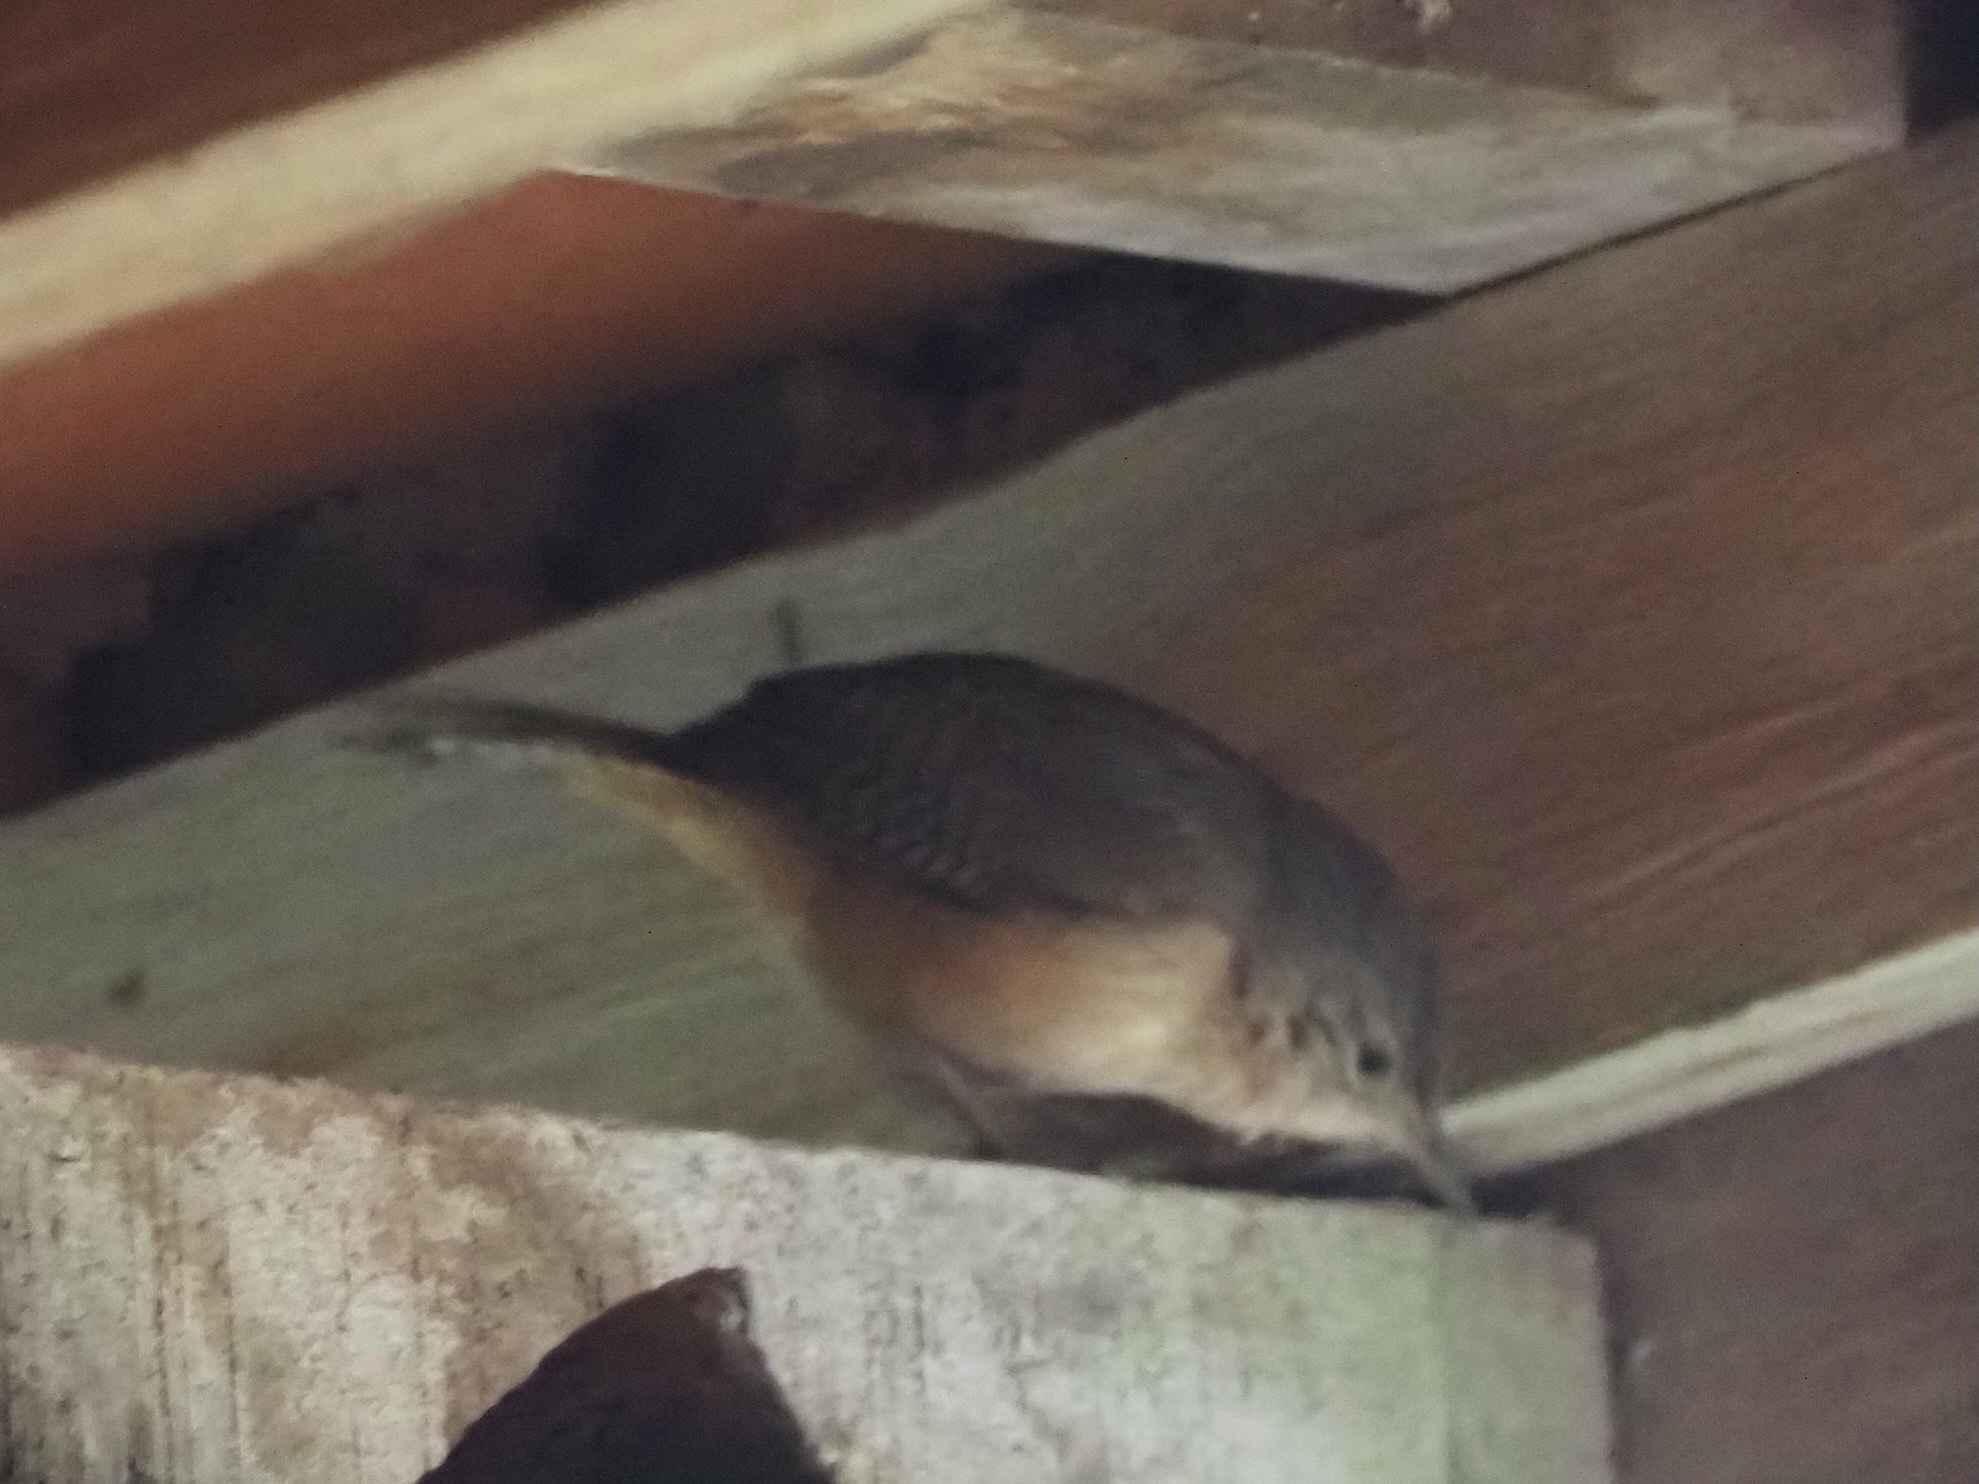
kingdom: Animalia
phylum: Chordata
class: Aves
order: Passeriformes
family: Troglodytidae
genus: Troglodytes
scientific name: Troglodytes aedon
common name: House wren
